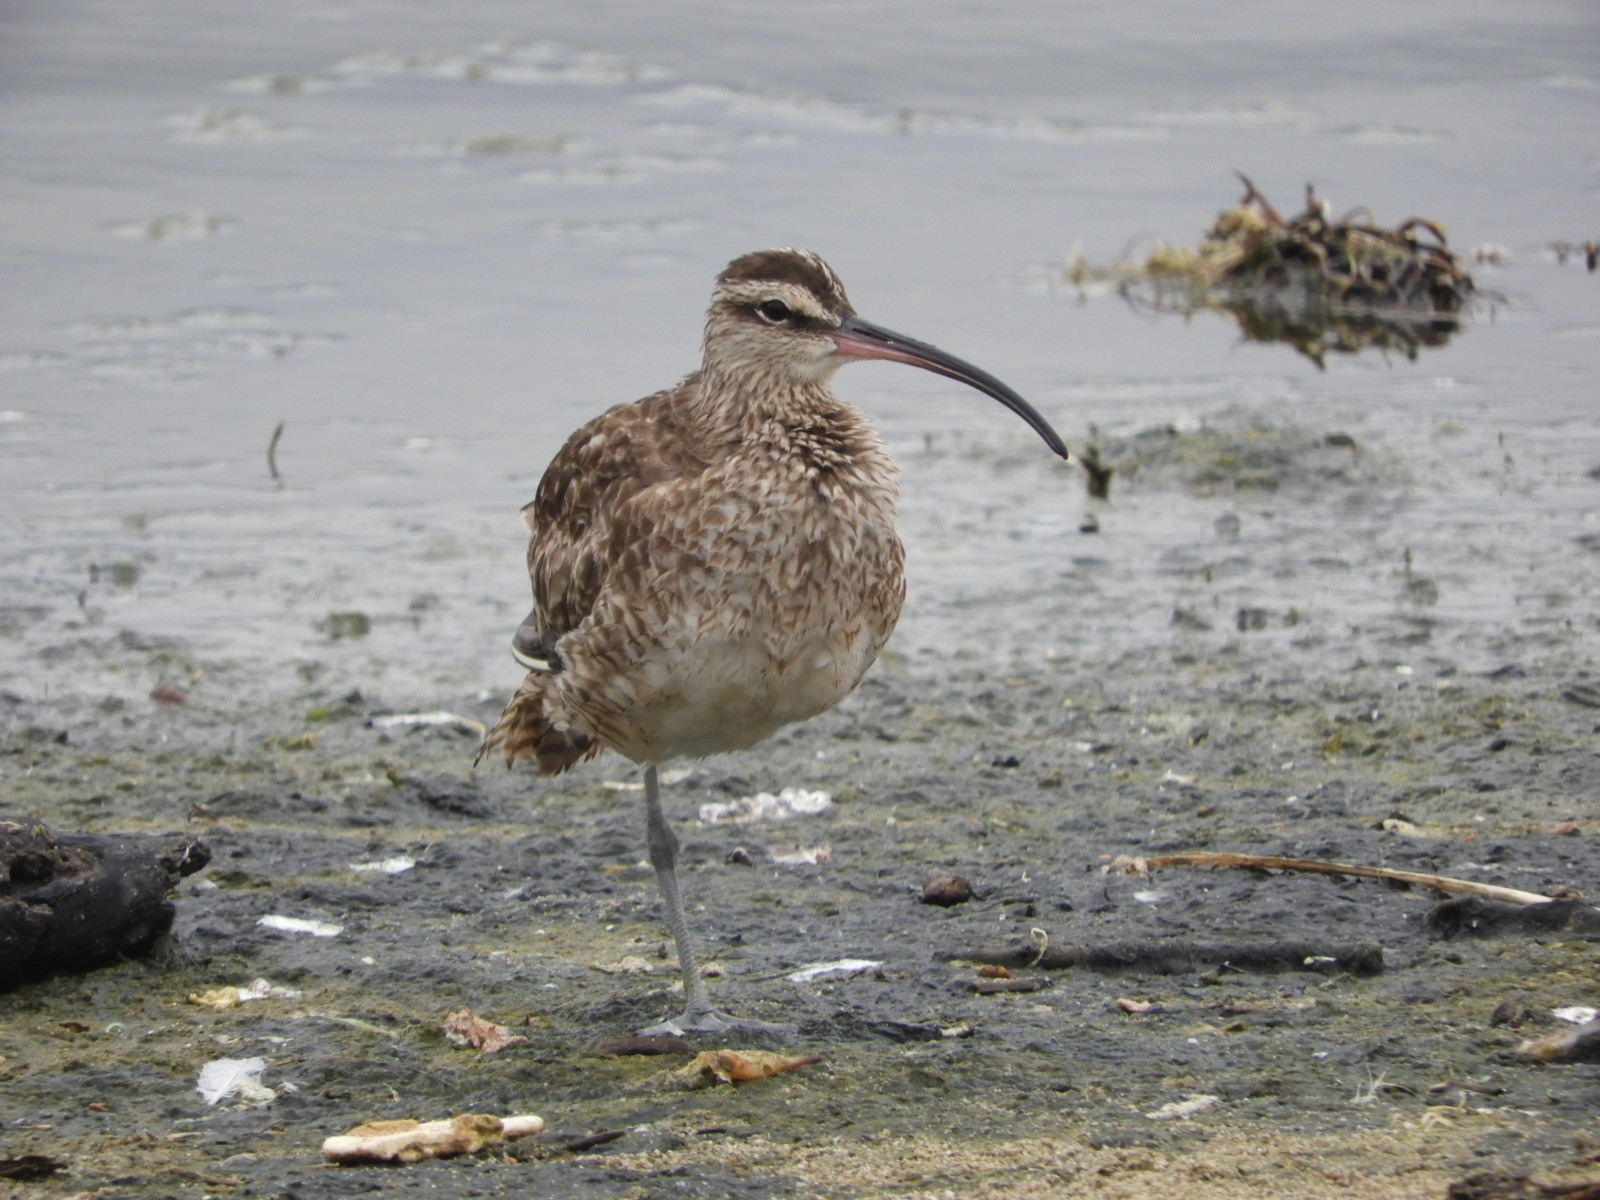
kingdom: Animalia
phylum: Chordata
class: Aves
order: Charadriiformes
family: Scolopacidae
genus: Numenius
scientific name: Numenius phaeopus
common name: Whimbrel
